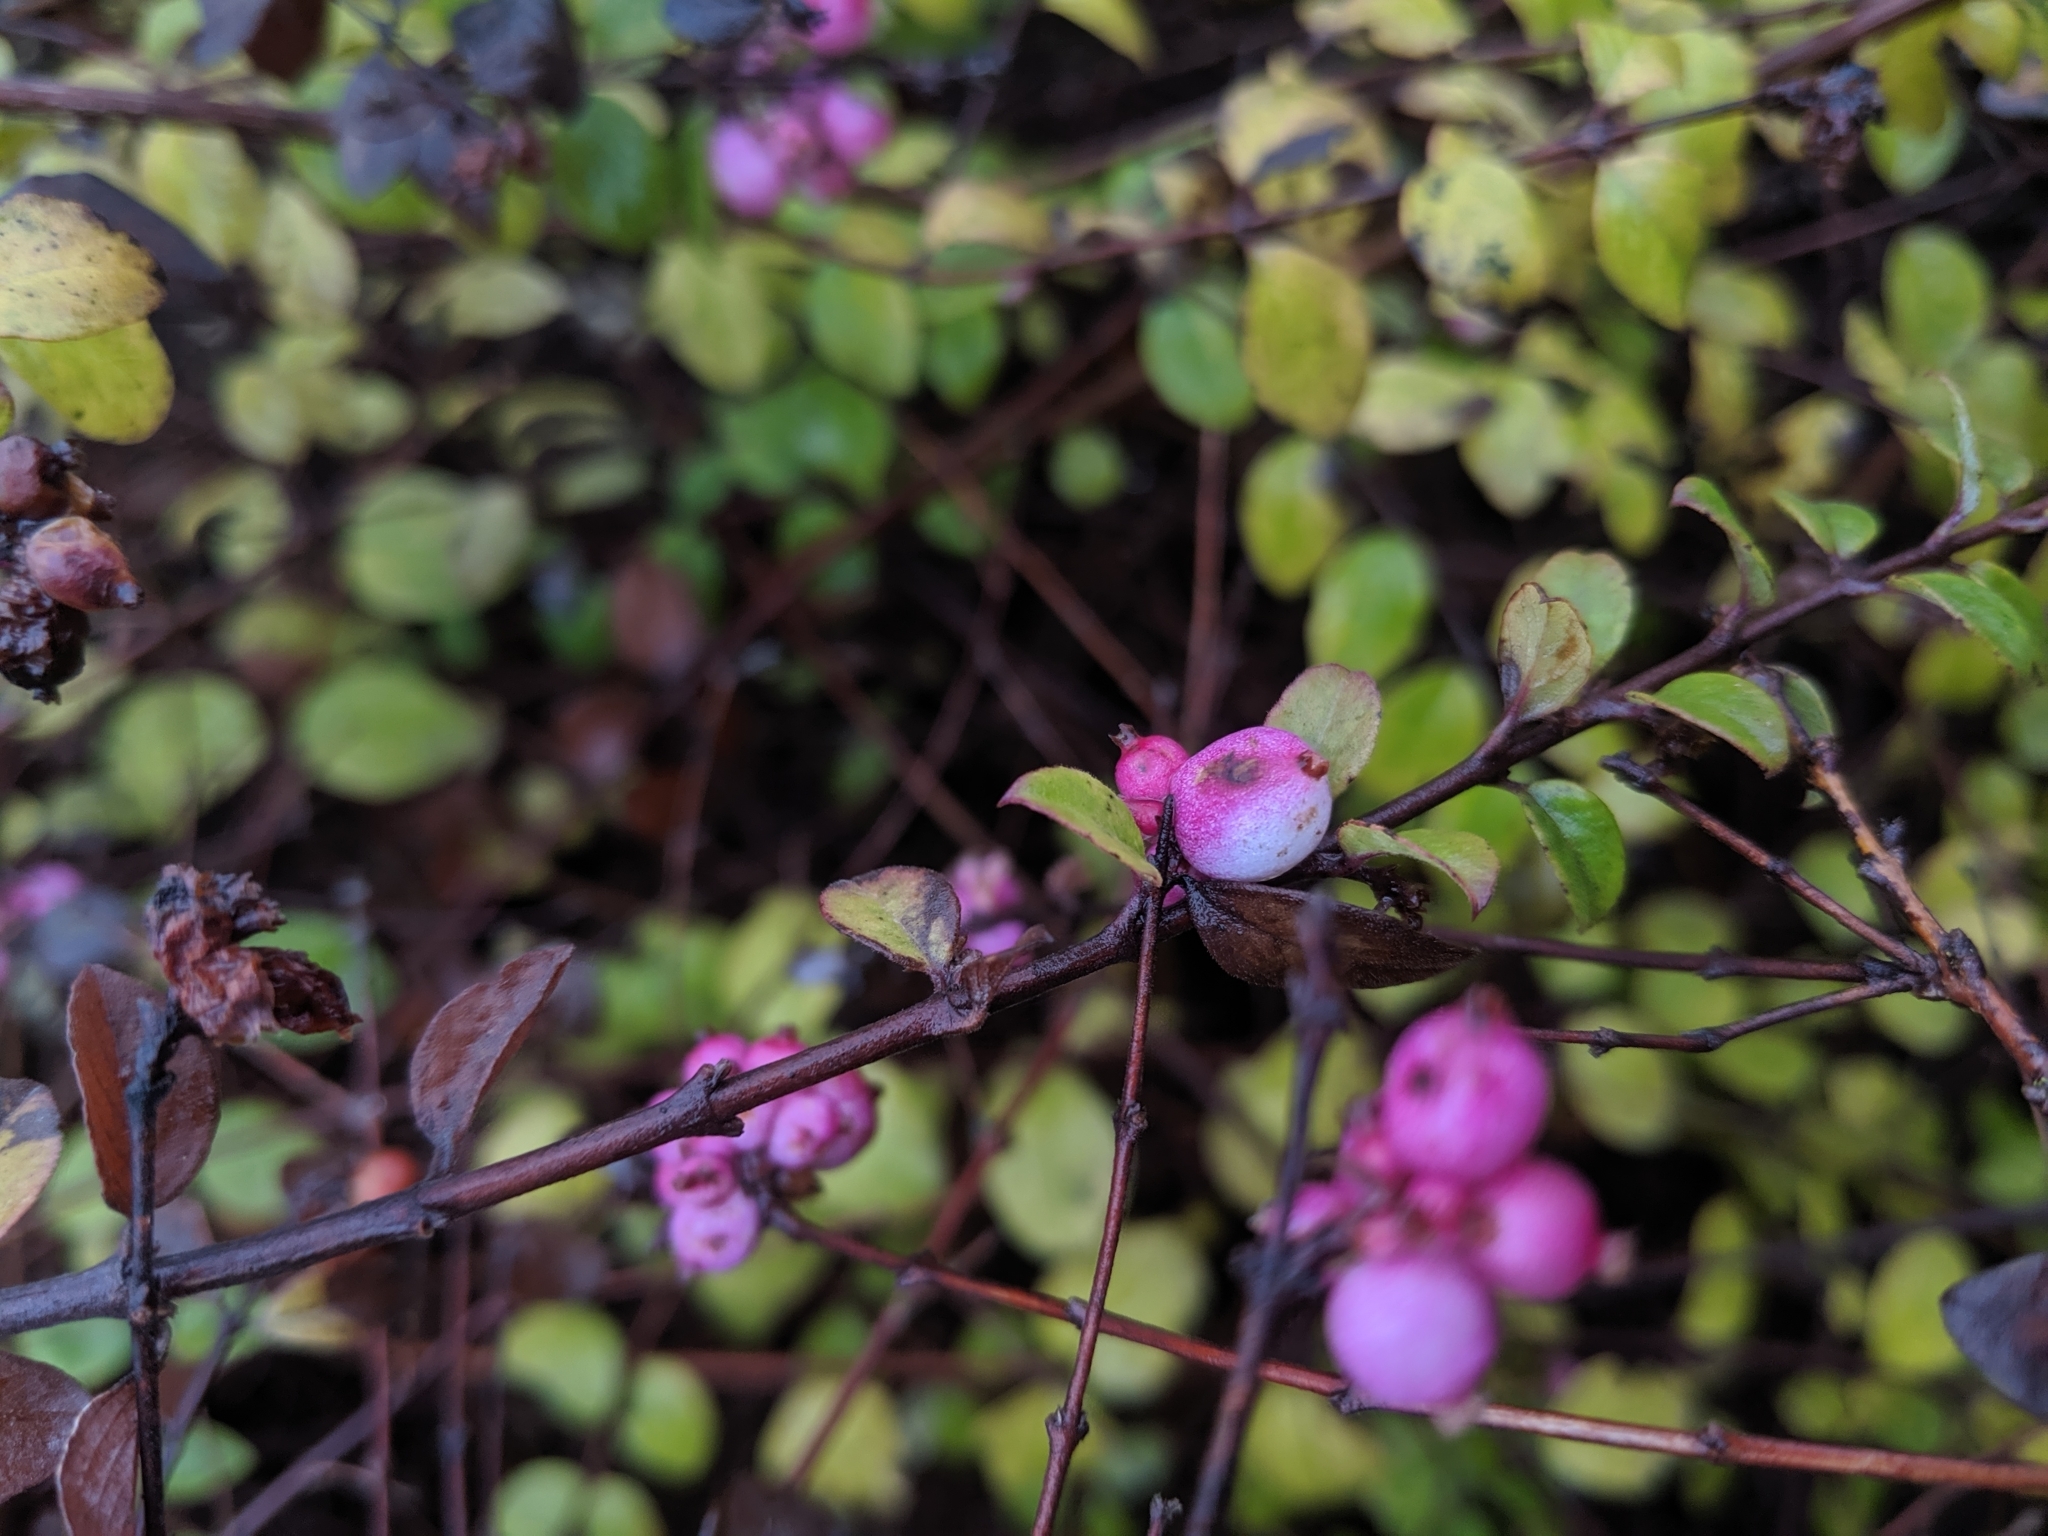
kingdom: Plantae
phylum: Tracheophyta
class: Magnoliopsida
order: Dipsacales
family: Caprifoliaceae
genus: Symphoricarpos
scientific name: Symphoricarpos doorenbosii
